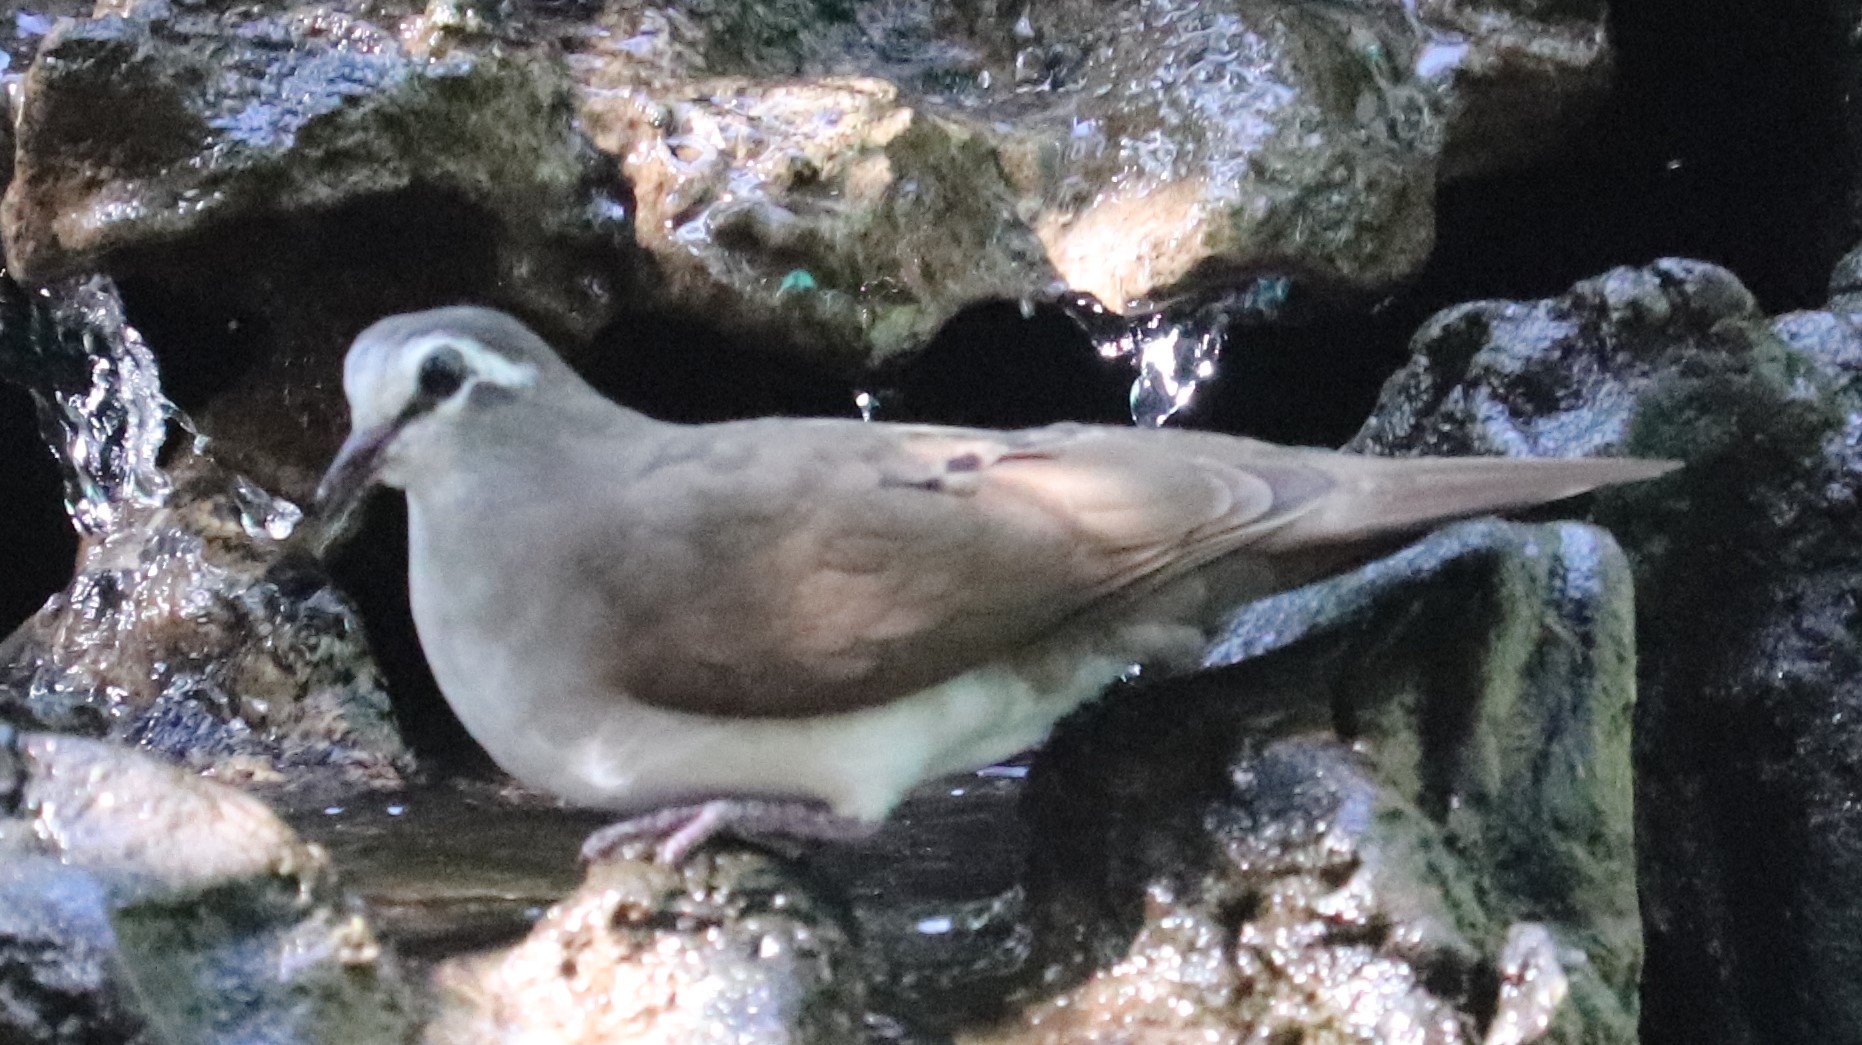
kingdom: Animalia
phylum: Chordata
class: Aves
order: Columbiformes
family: Columbidae
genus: Turtur
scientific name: Turtur tympanistria
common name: Tambourine dove
